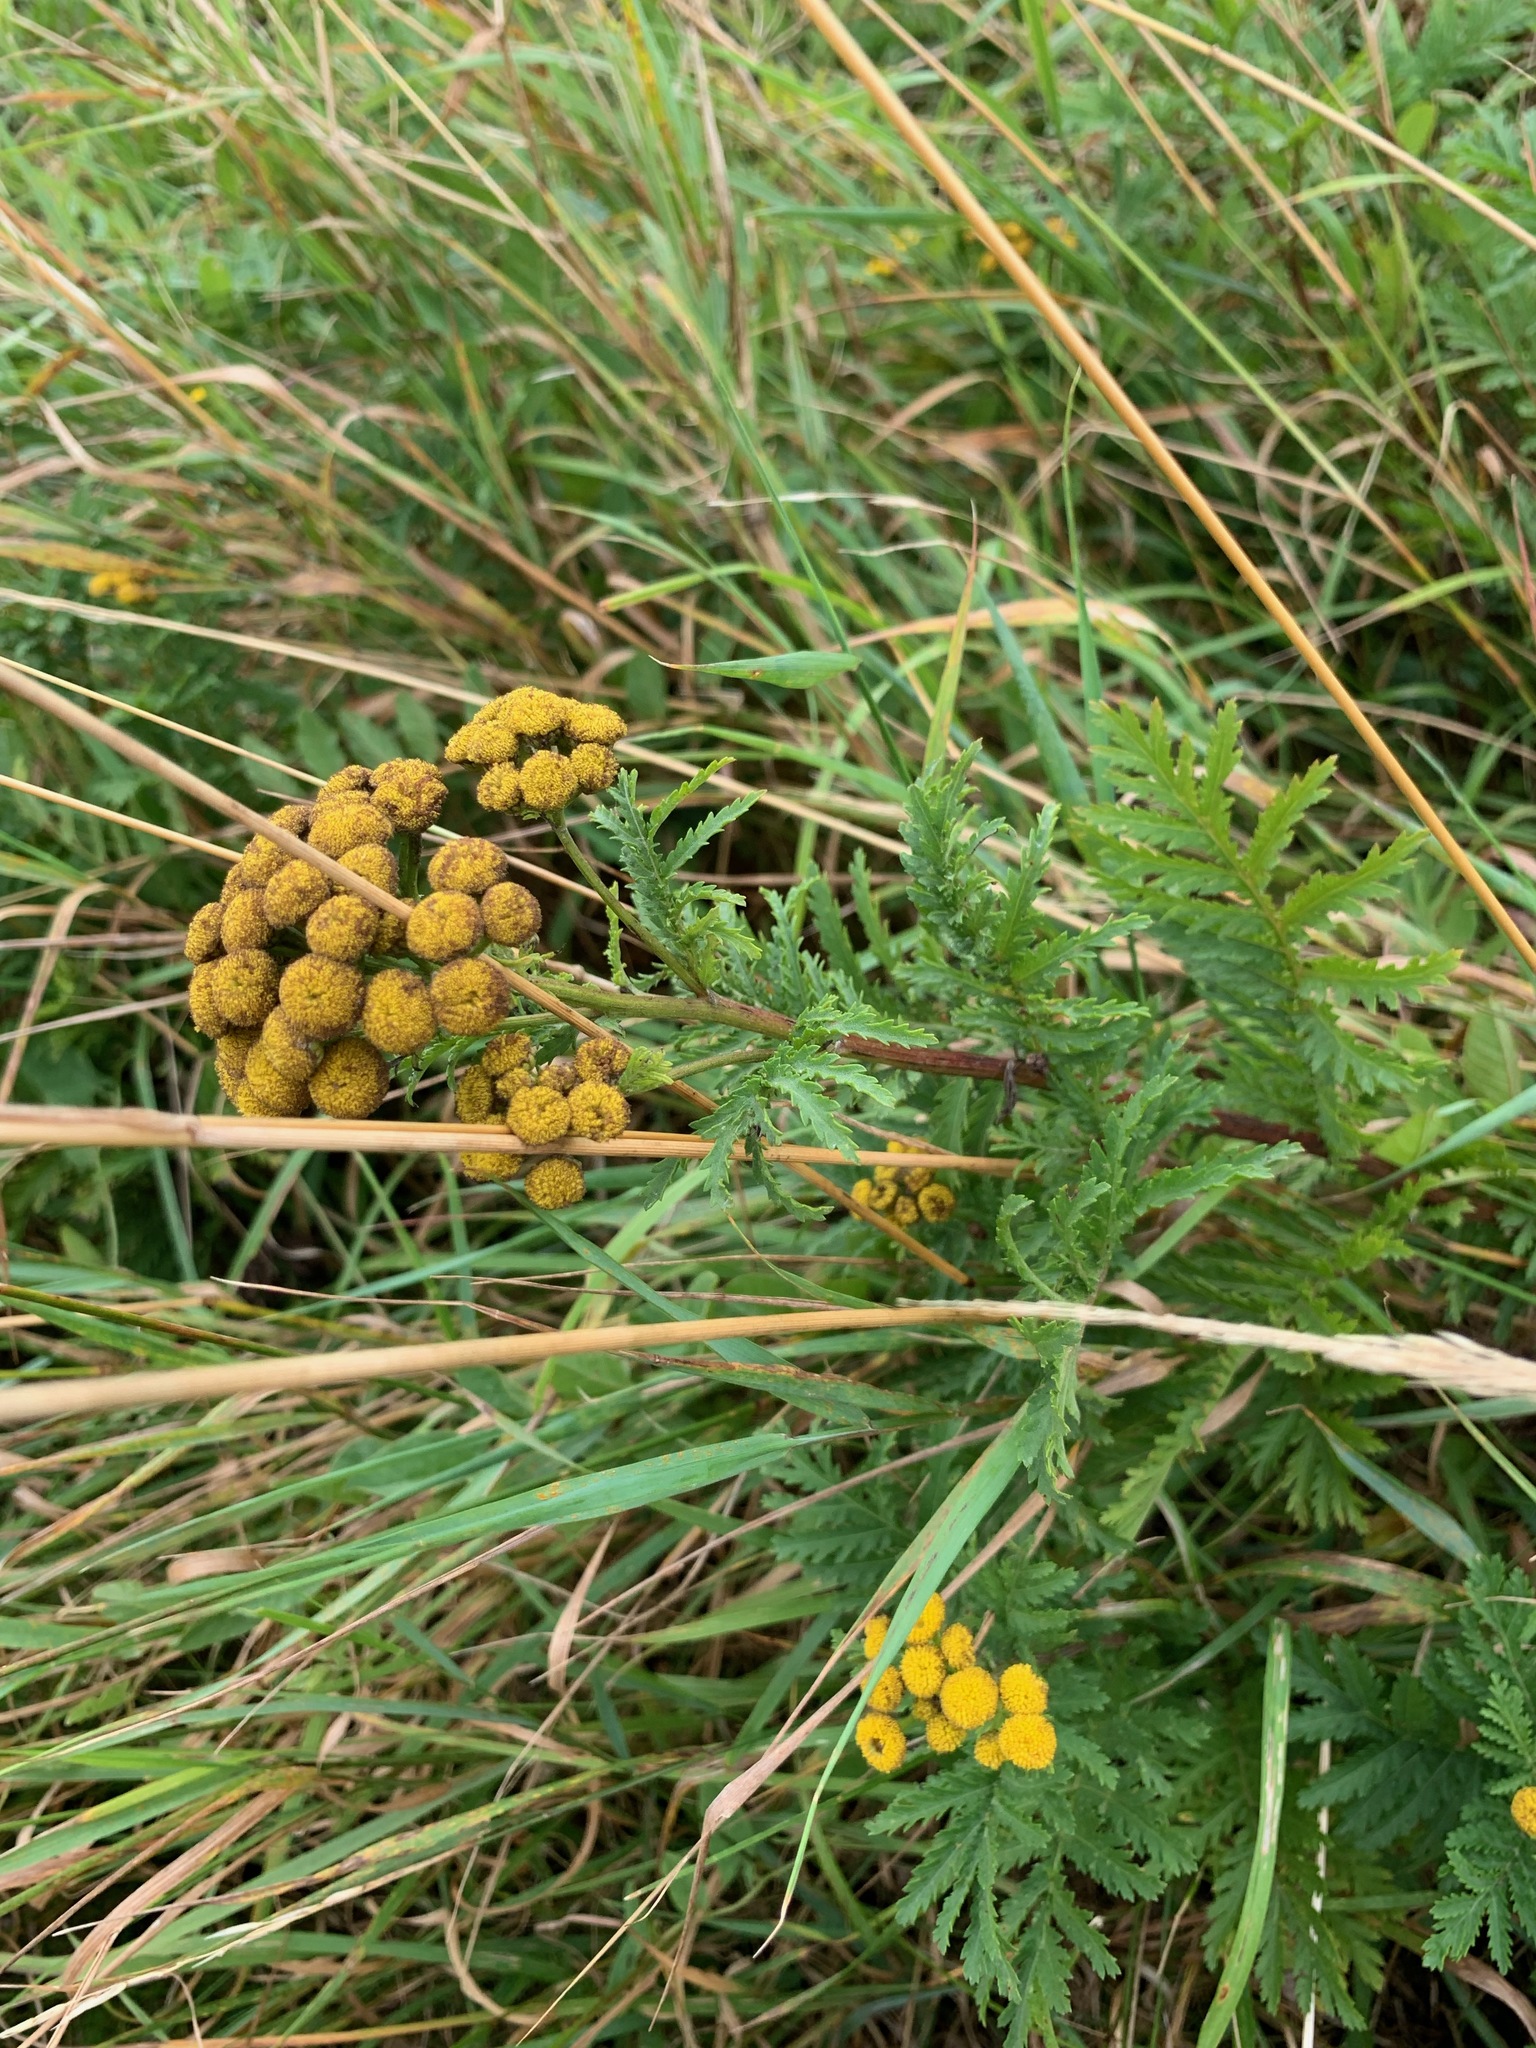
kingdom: Plantae
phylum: Tracheophyta
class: Magnoliopsida
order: Asterales
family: Asteraceae
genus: Tanacetum
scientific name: Tanacetum vulgare
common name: Common tansy
